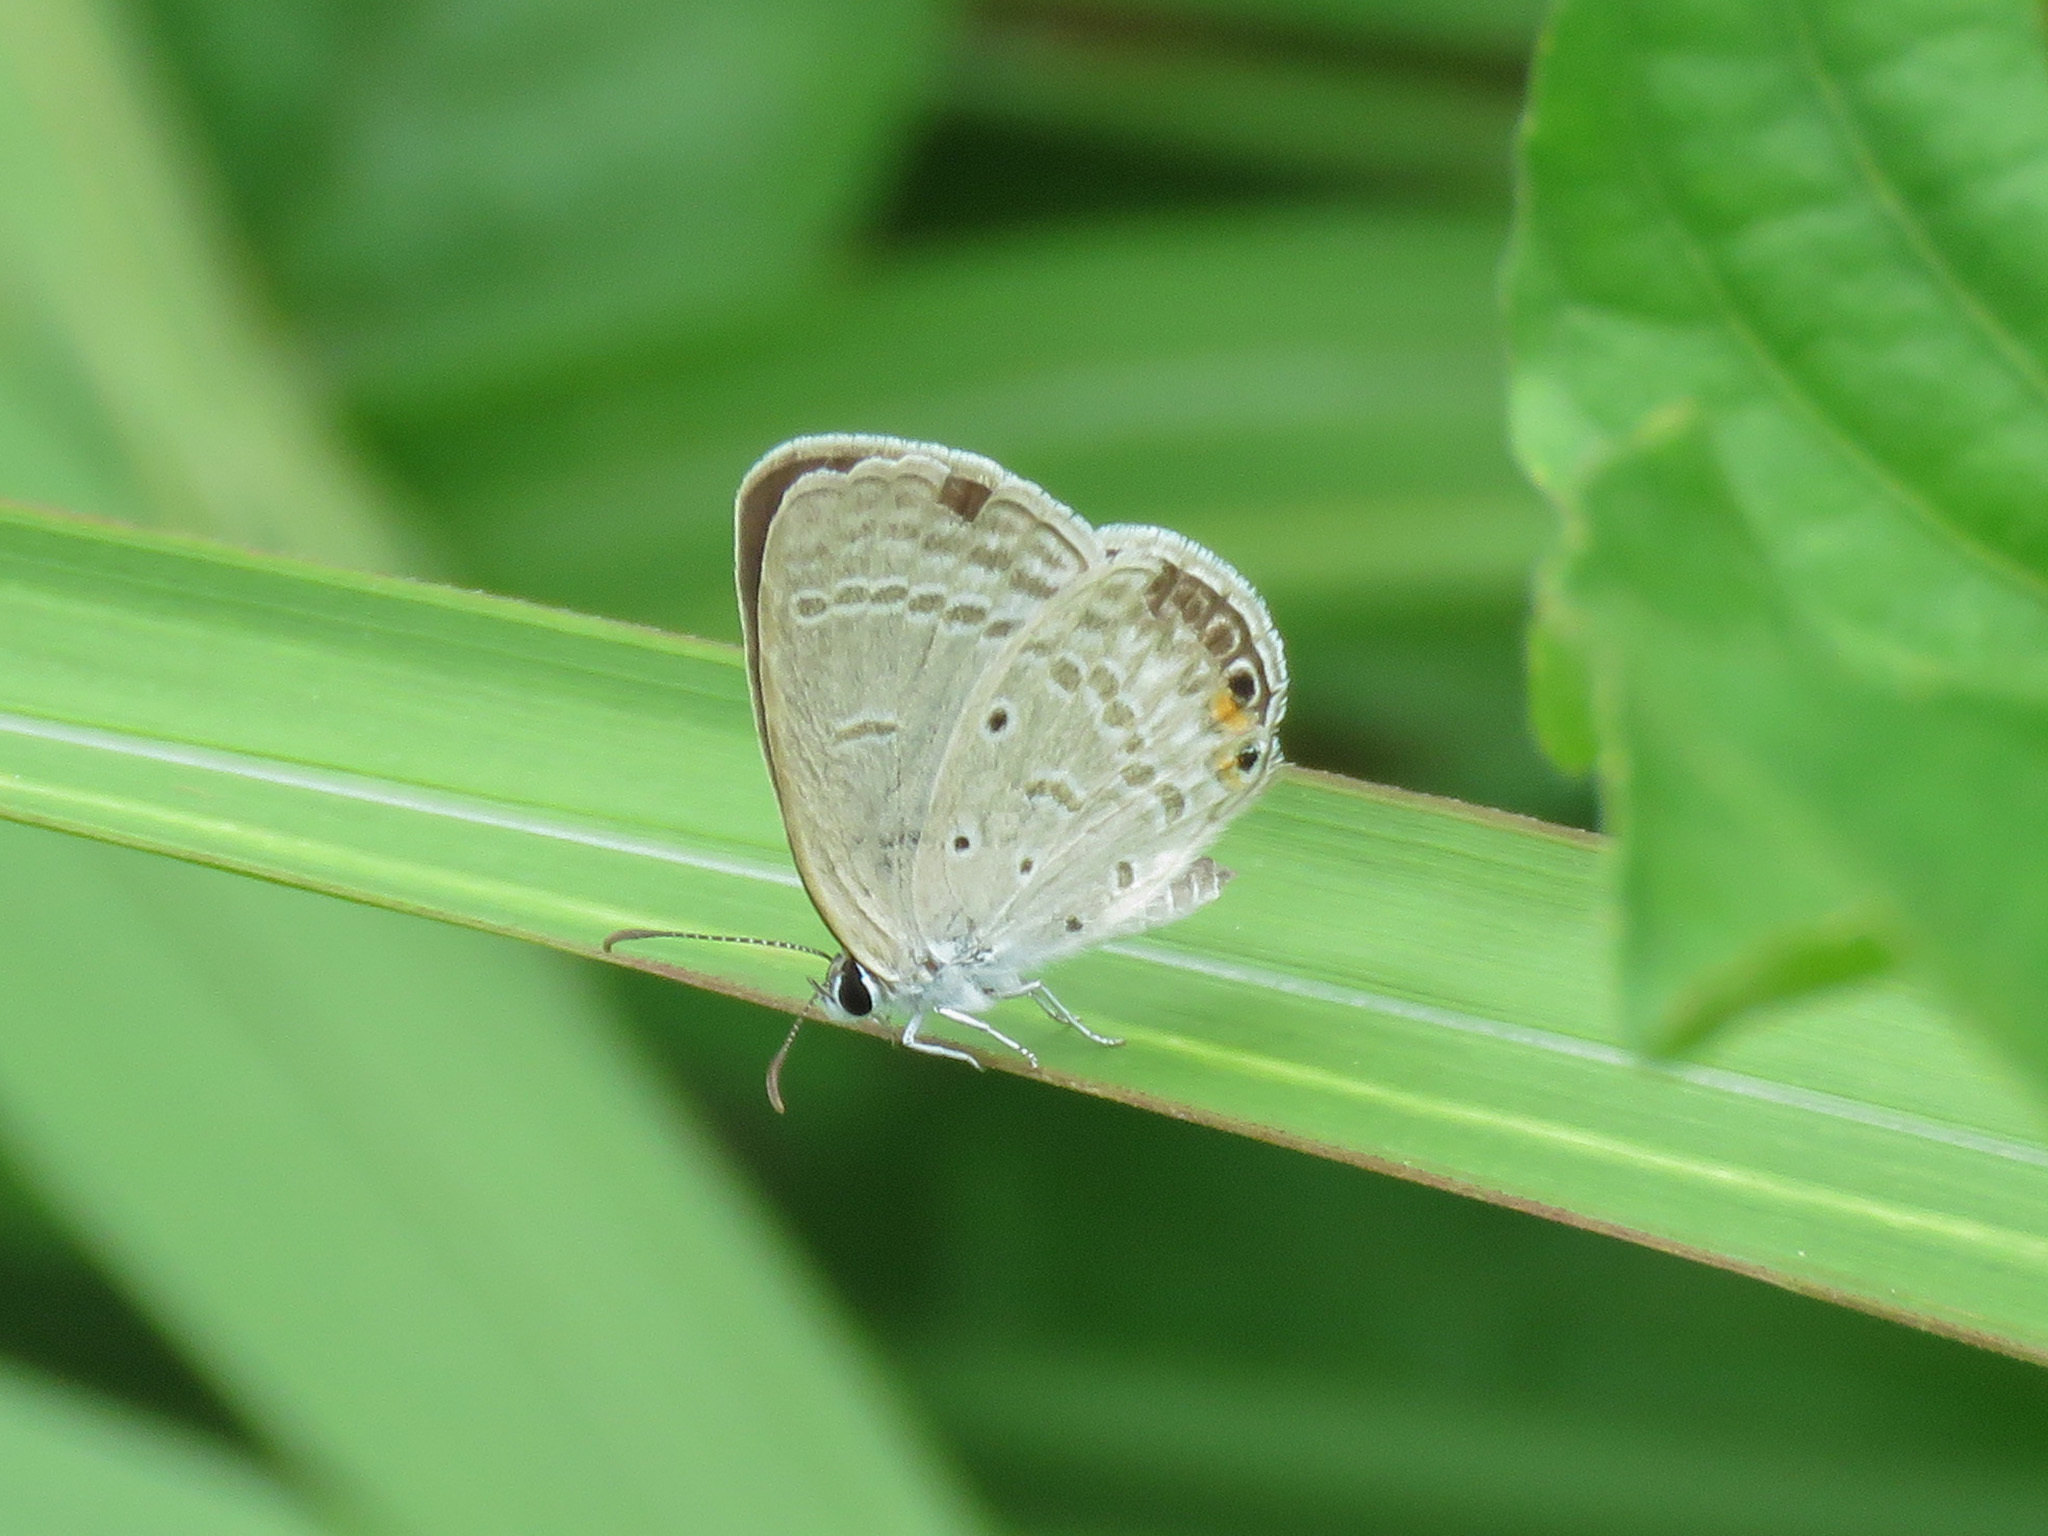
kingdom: Animalia
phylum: Arthropoda
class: Insecta
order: Lepidoptera
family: Lycaenidae
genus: Euchrysops
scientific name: Euchrysops cnejus
